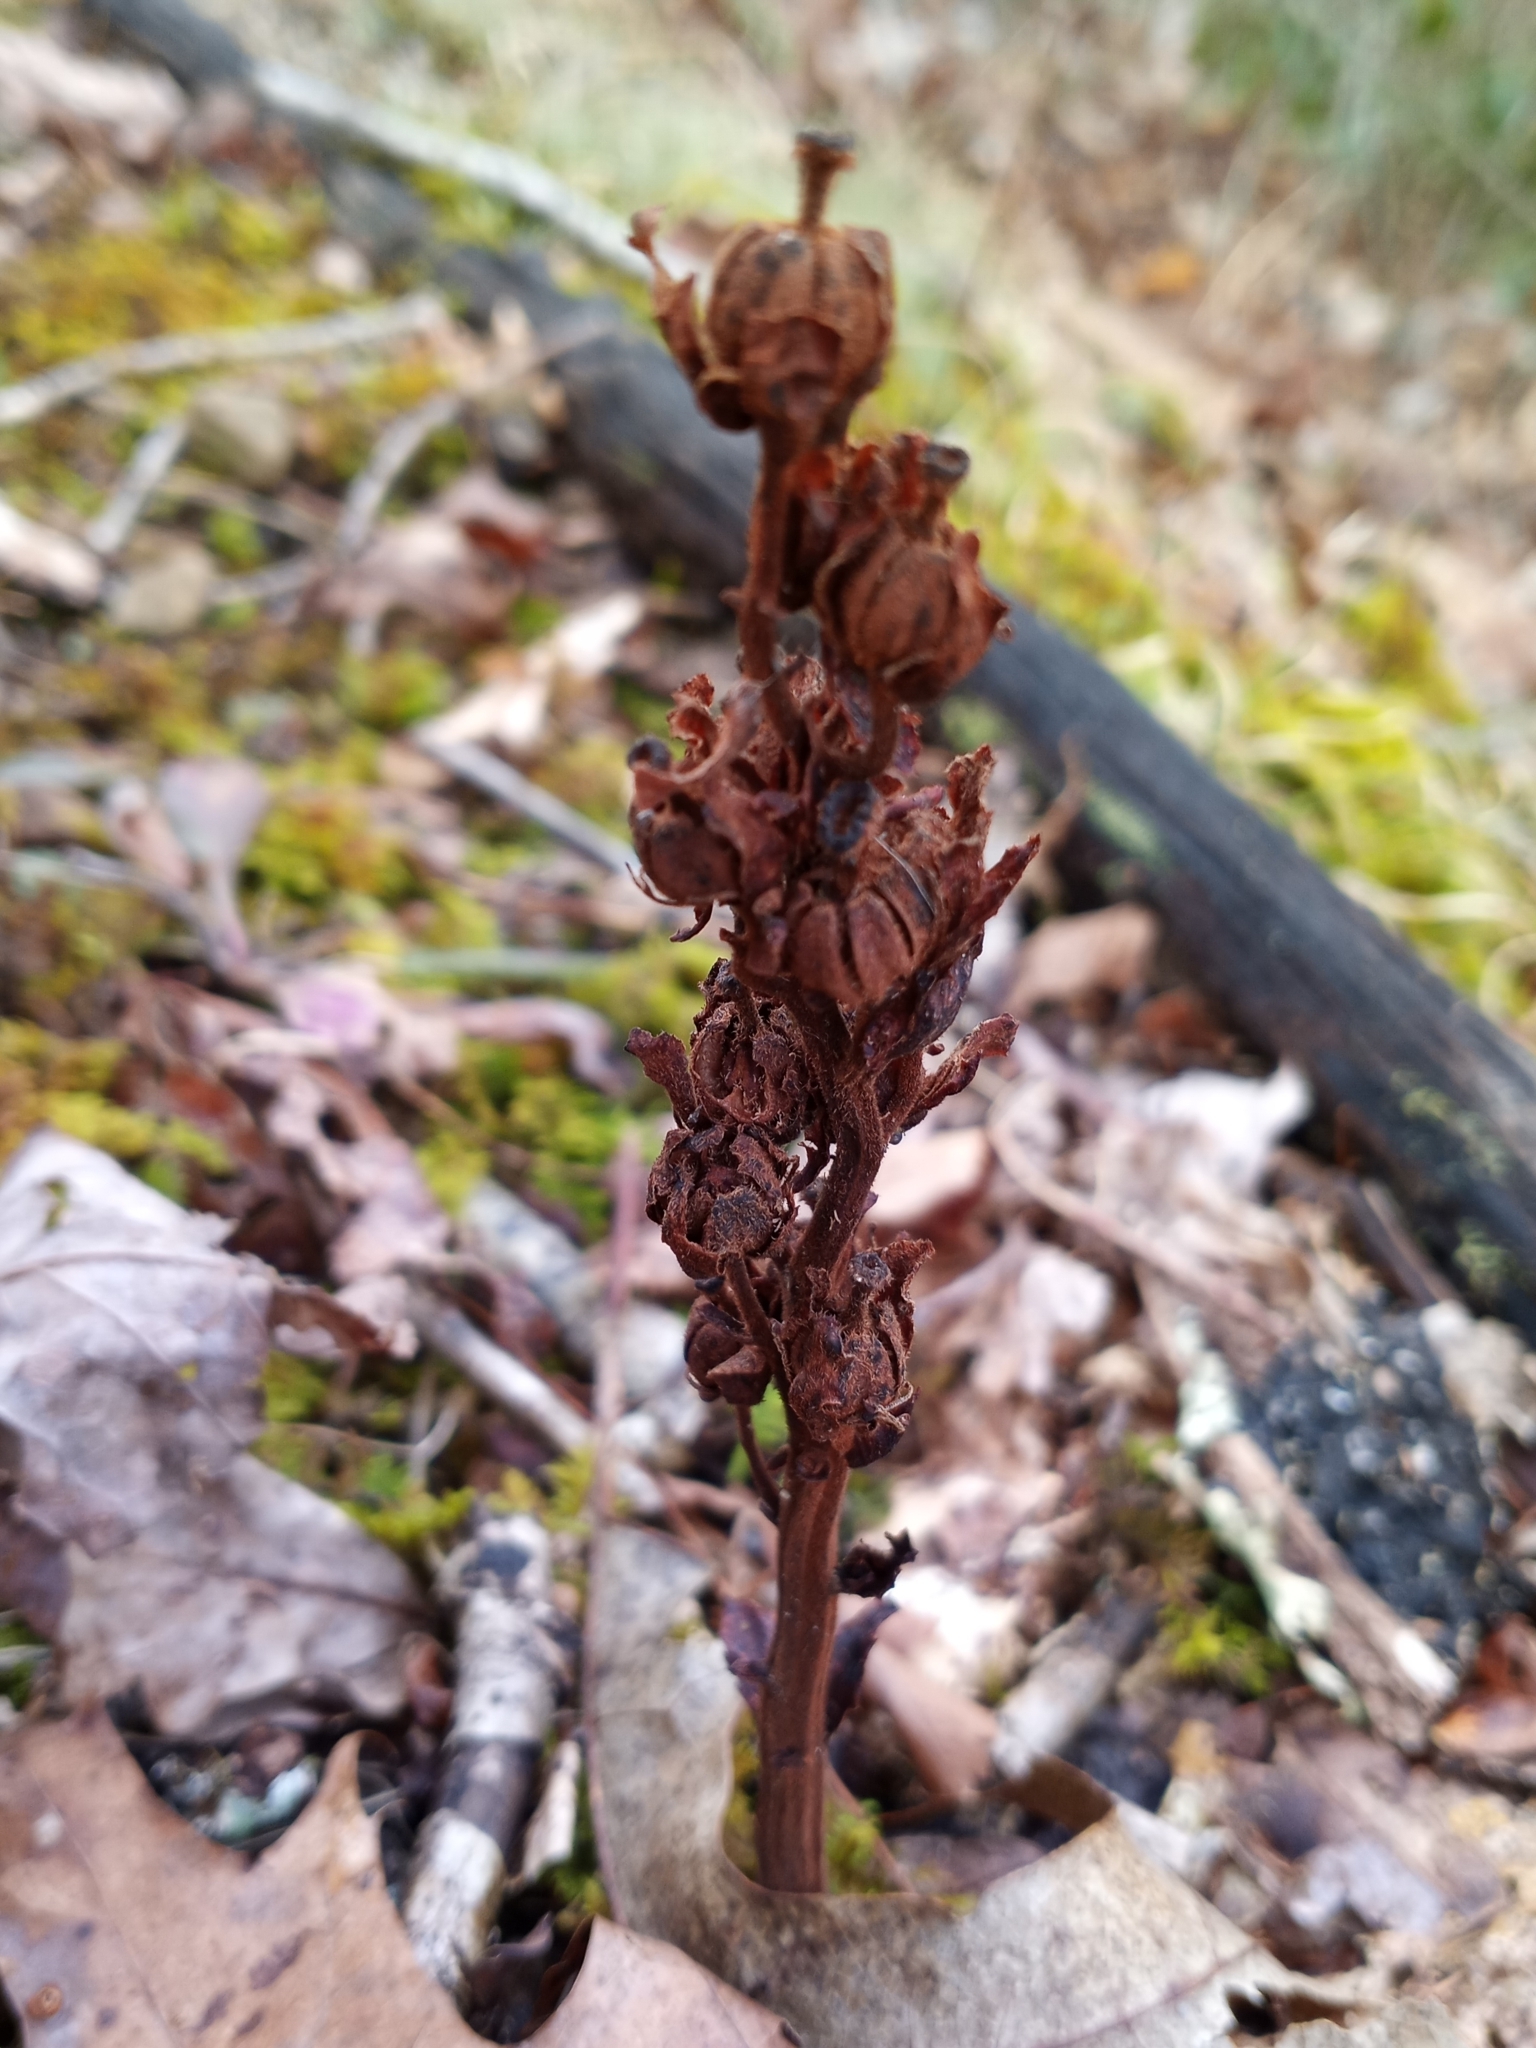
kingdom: Plantae
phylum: Tracheophyta
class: Magnoliopsida
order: Ericales
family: Ericaceae
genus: Hypopitys
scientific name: Hypopitys monotropa
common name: Yellow bird's-nest
